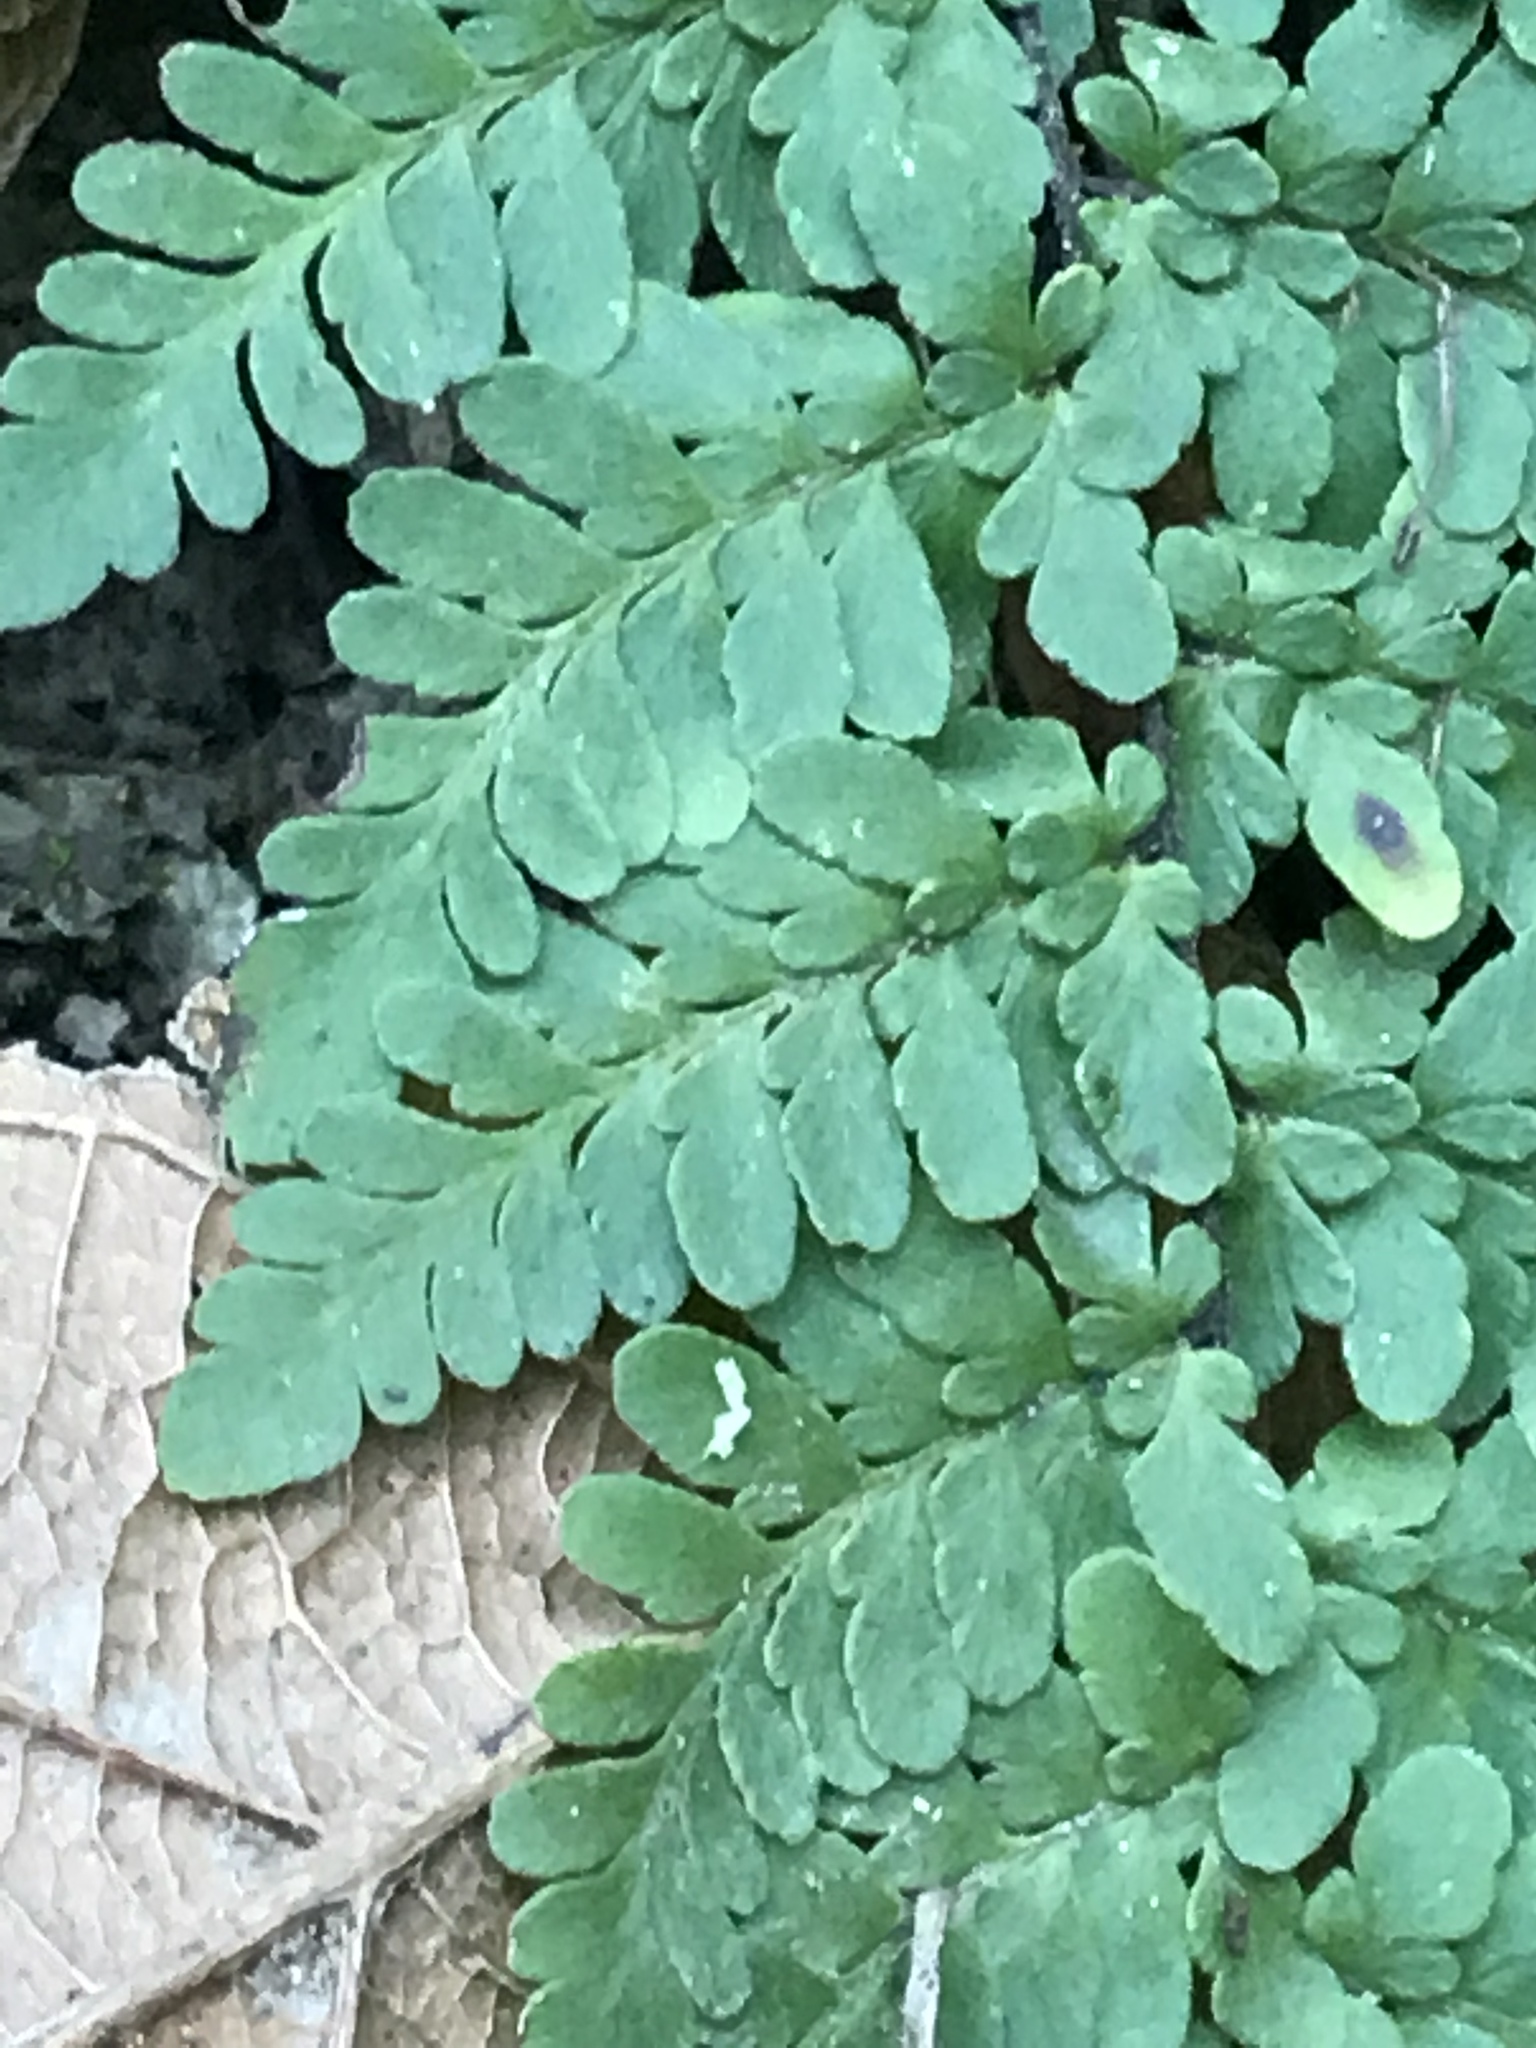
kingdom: Plantae
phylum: Tracheophyta
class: Polypodiopsida
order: Polypodiales
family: Pteridaceae
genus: Myriopteris
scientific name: Myriopteris alabamensis
